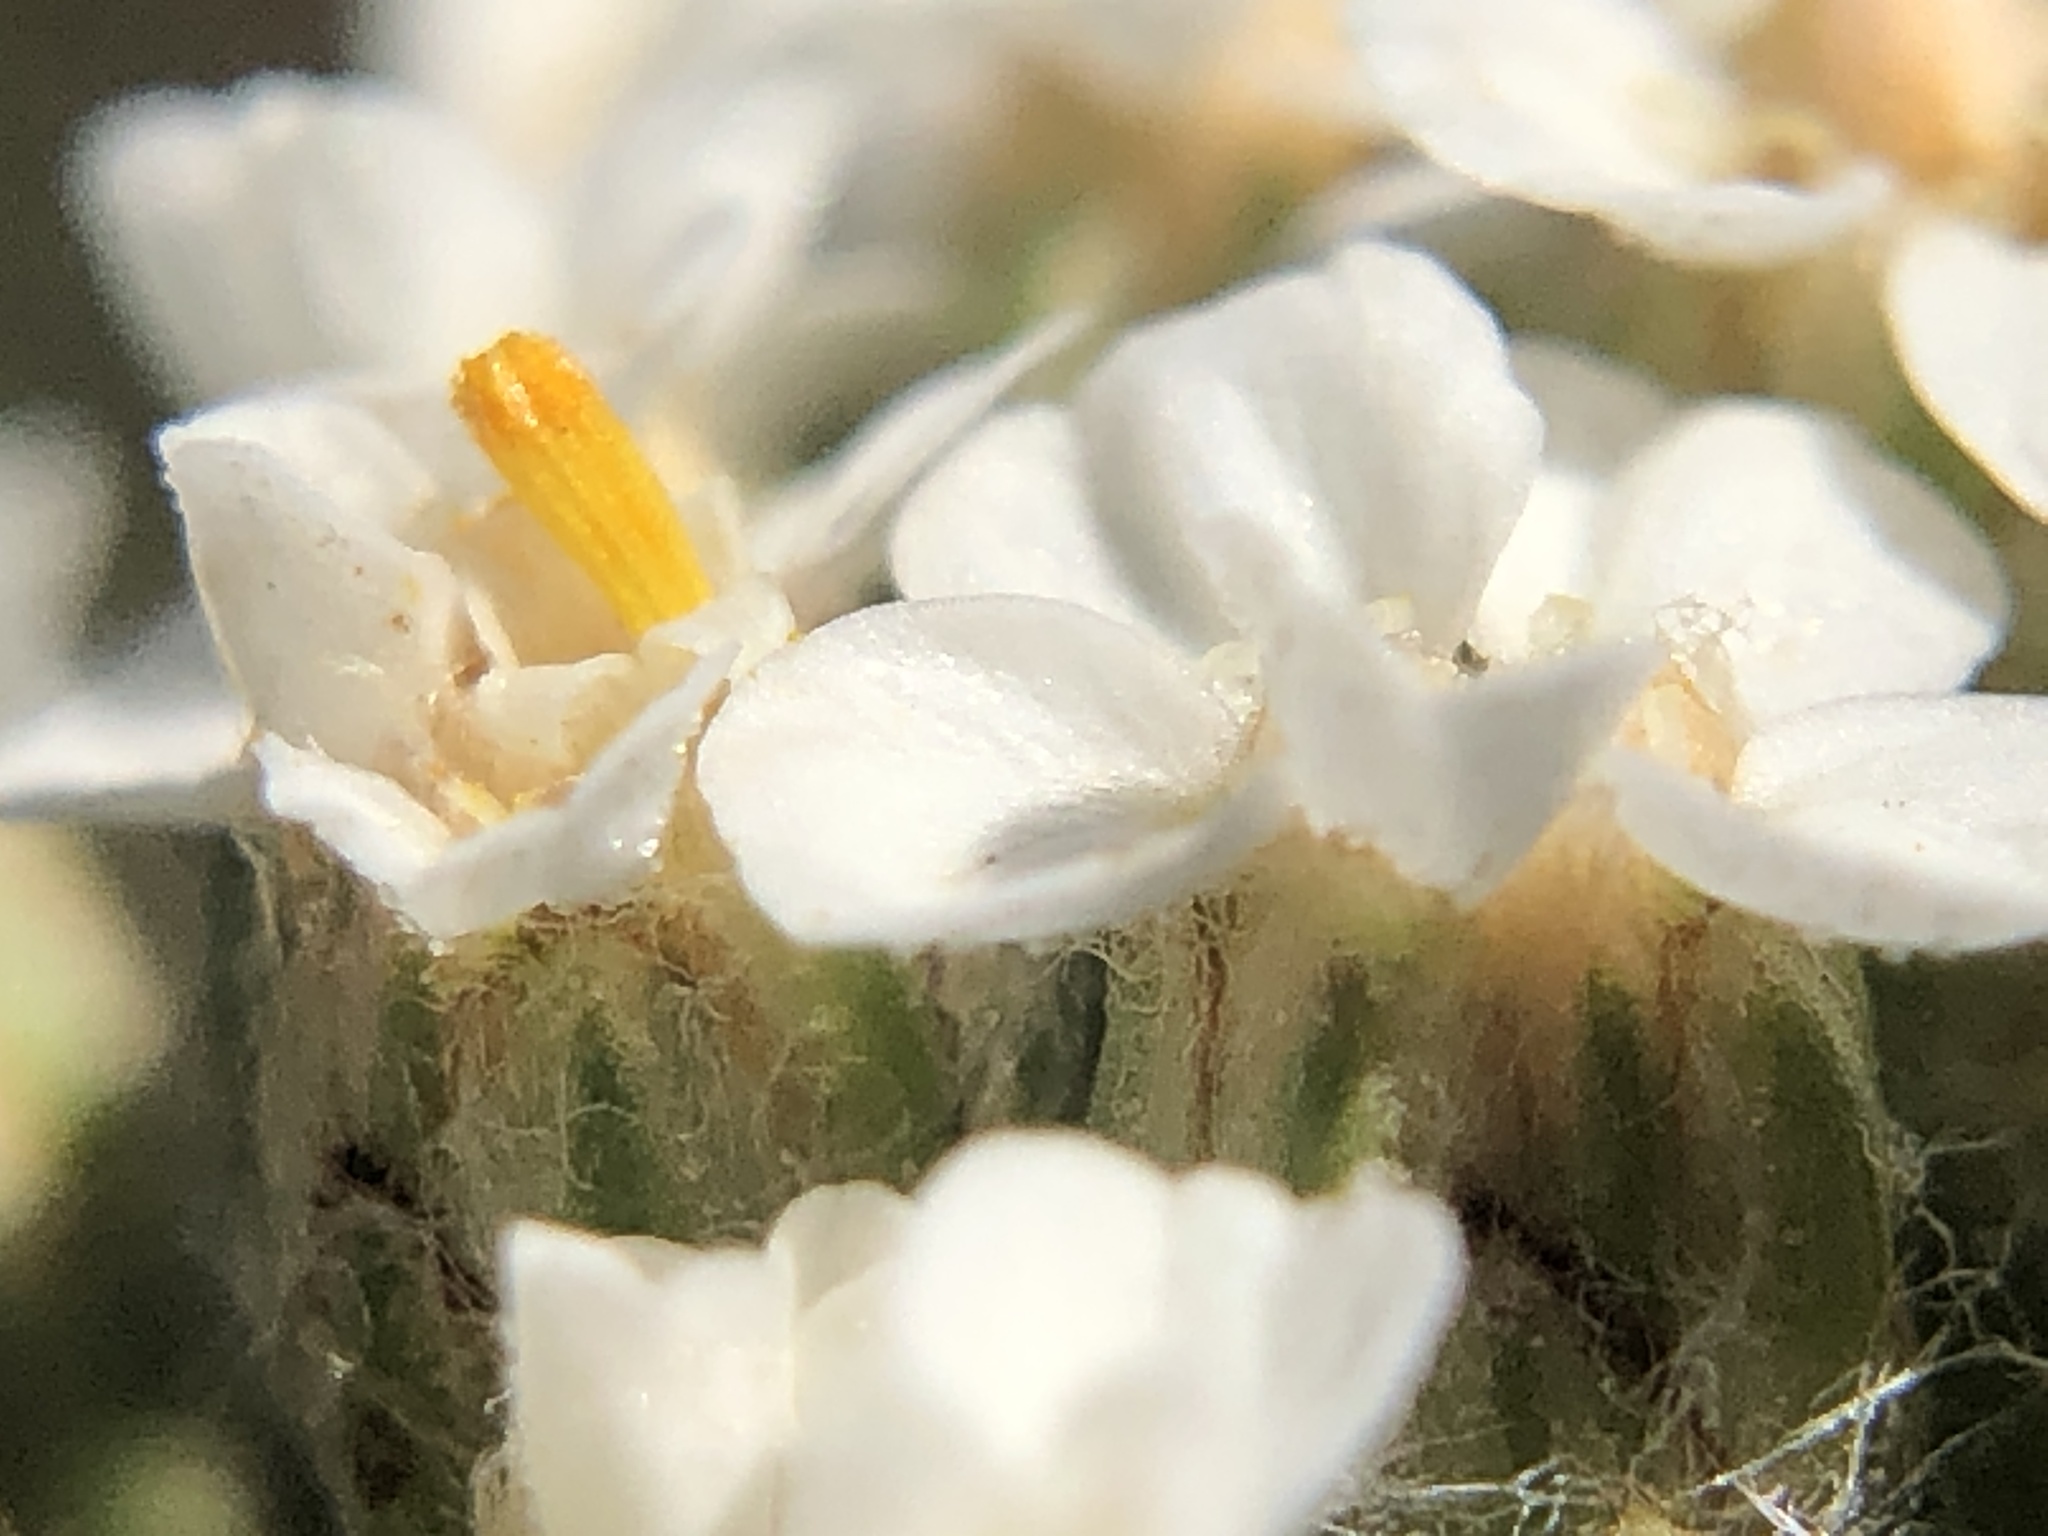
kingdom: Plantae
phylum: Tracheophyta
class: Magnoliopsida
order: Asterales
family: Asteraceae
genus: Achillea
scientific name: Achillea millefolium
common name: Yarrow
